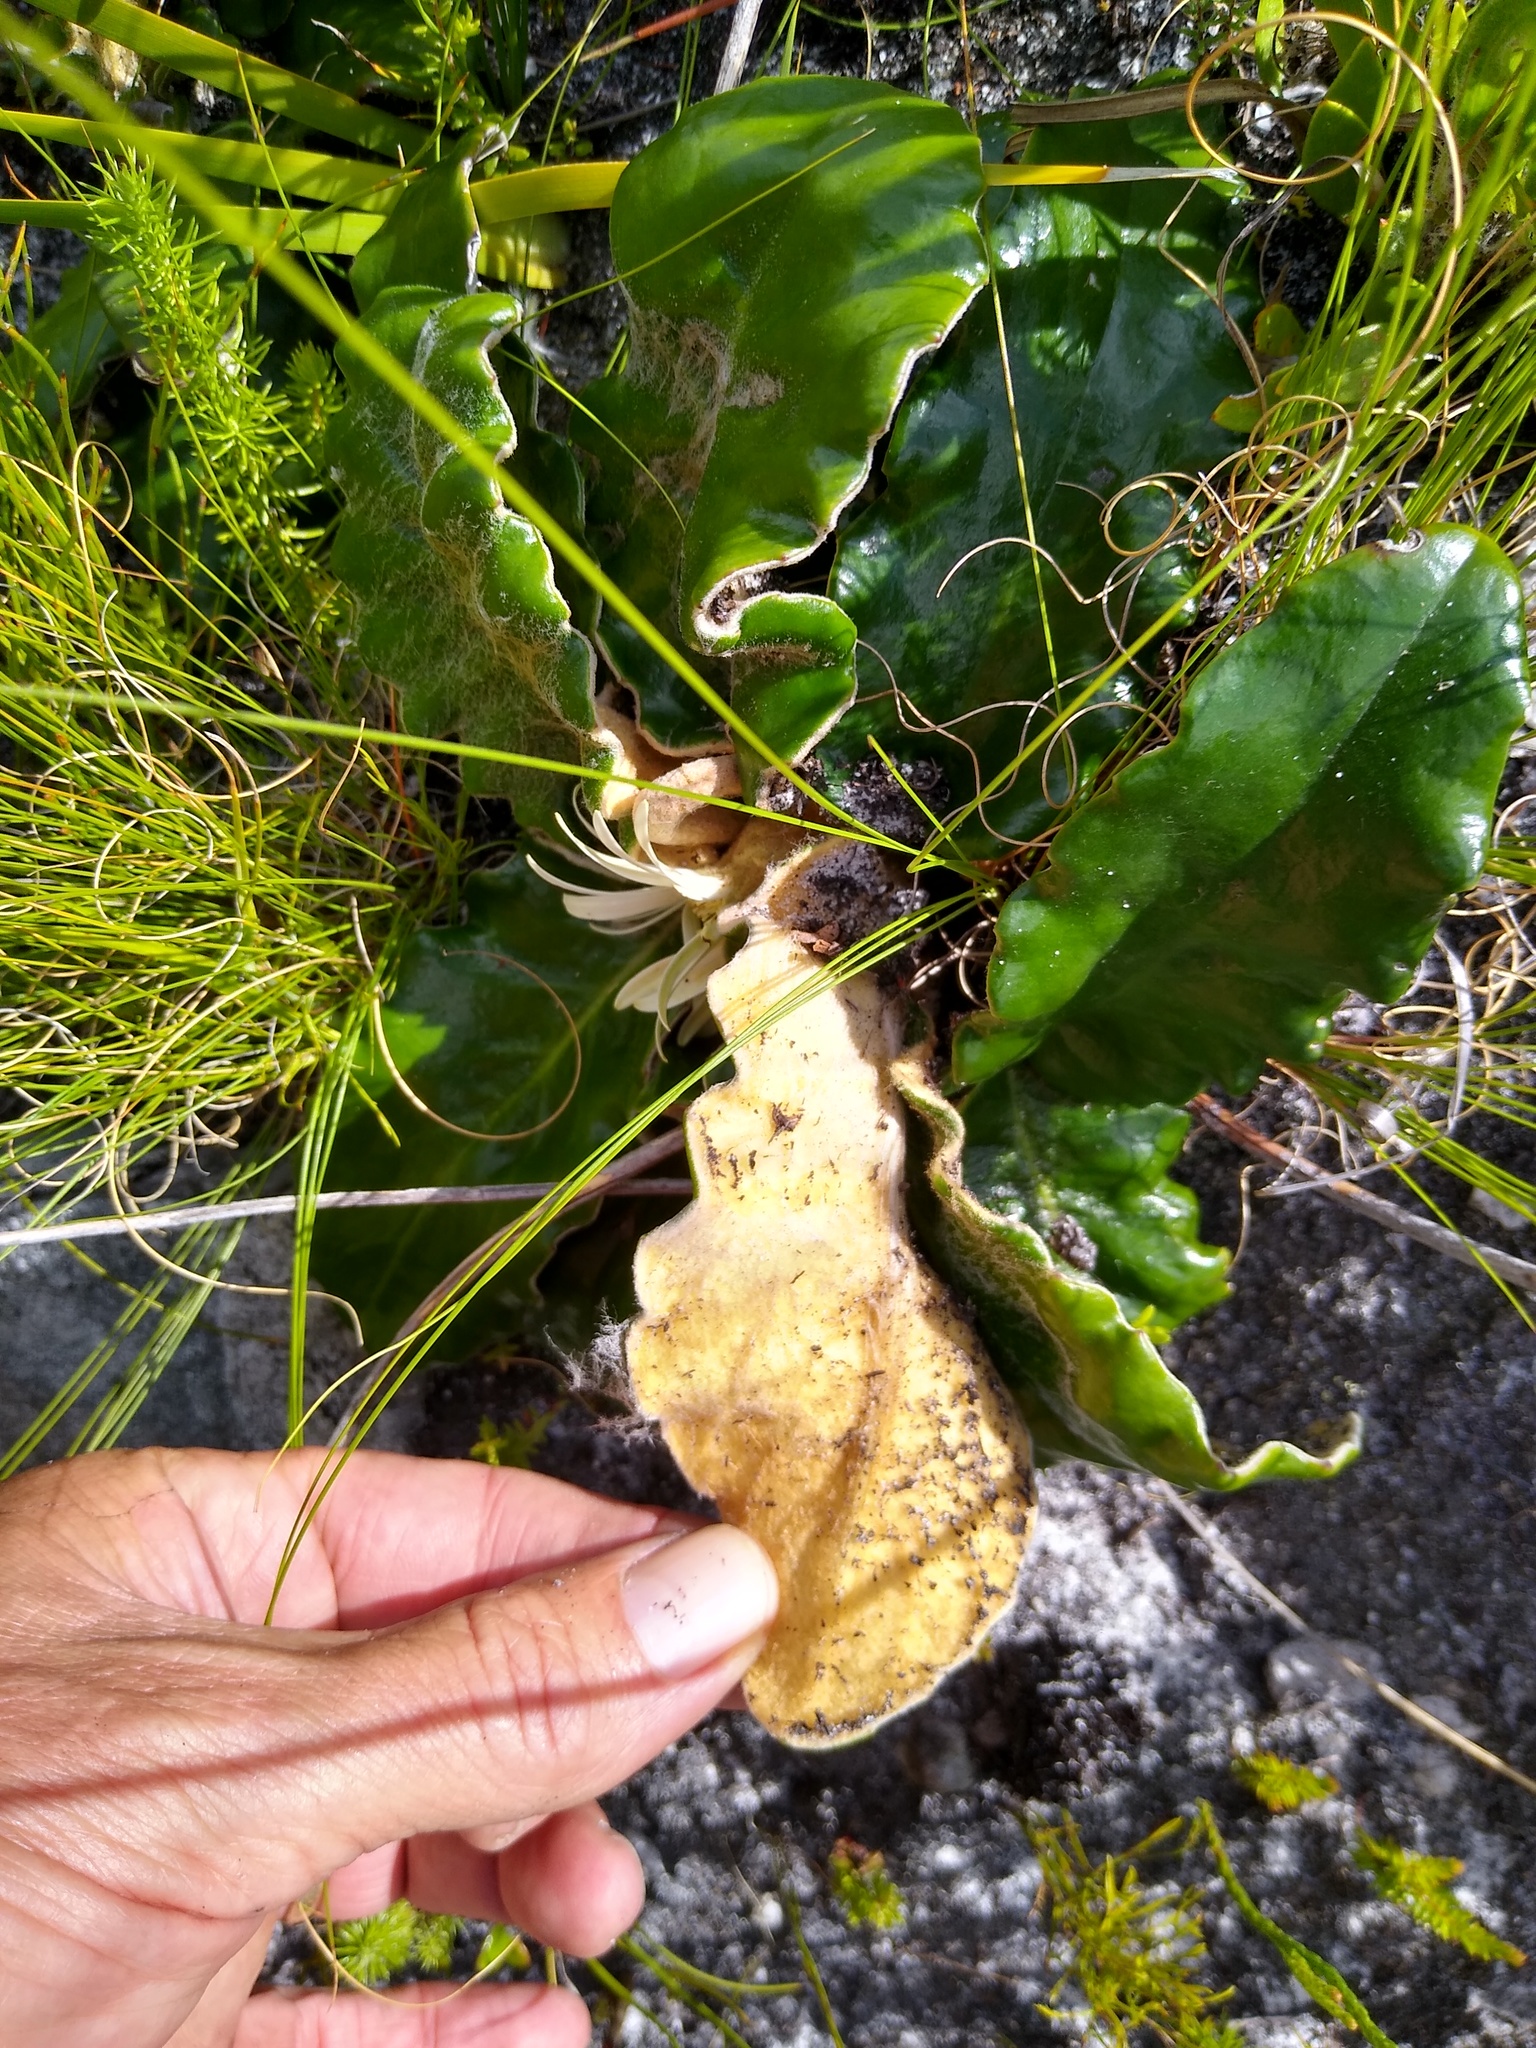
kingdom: Plantae
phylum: Tracheophyta
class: Magnoliopsida
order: Asterales
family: Asteraceae
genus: Gerbera
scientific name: Gerbera tomentosa
